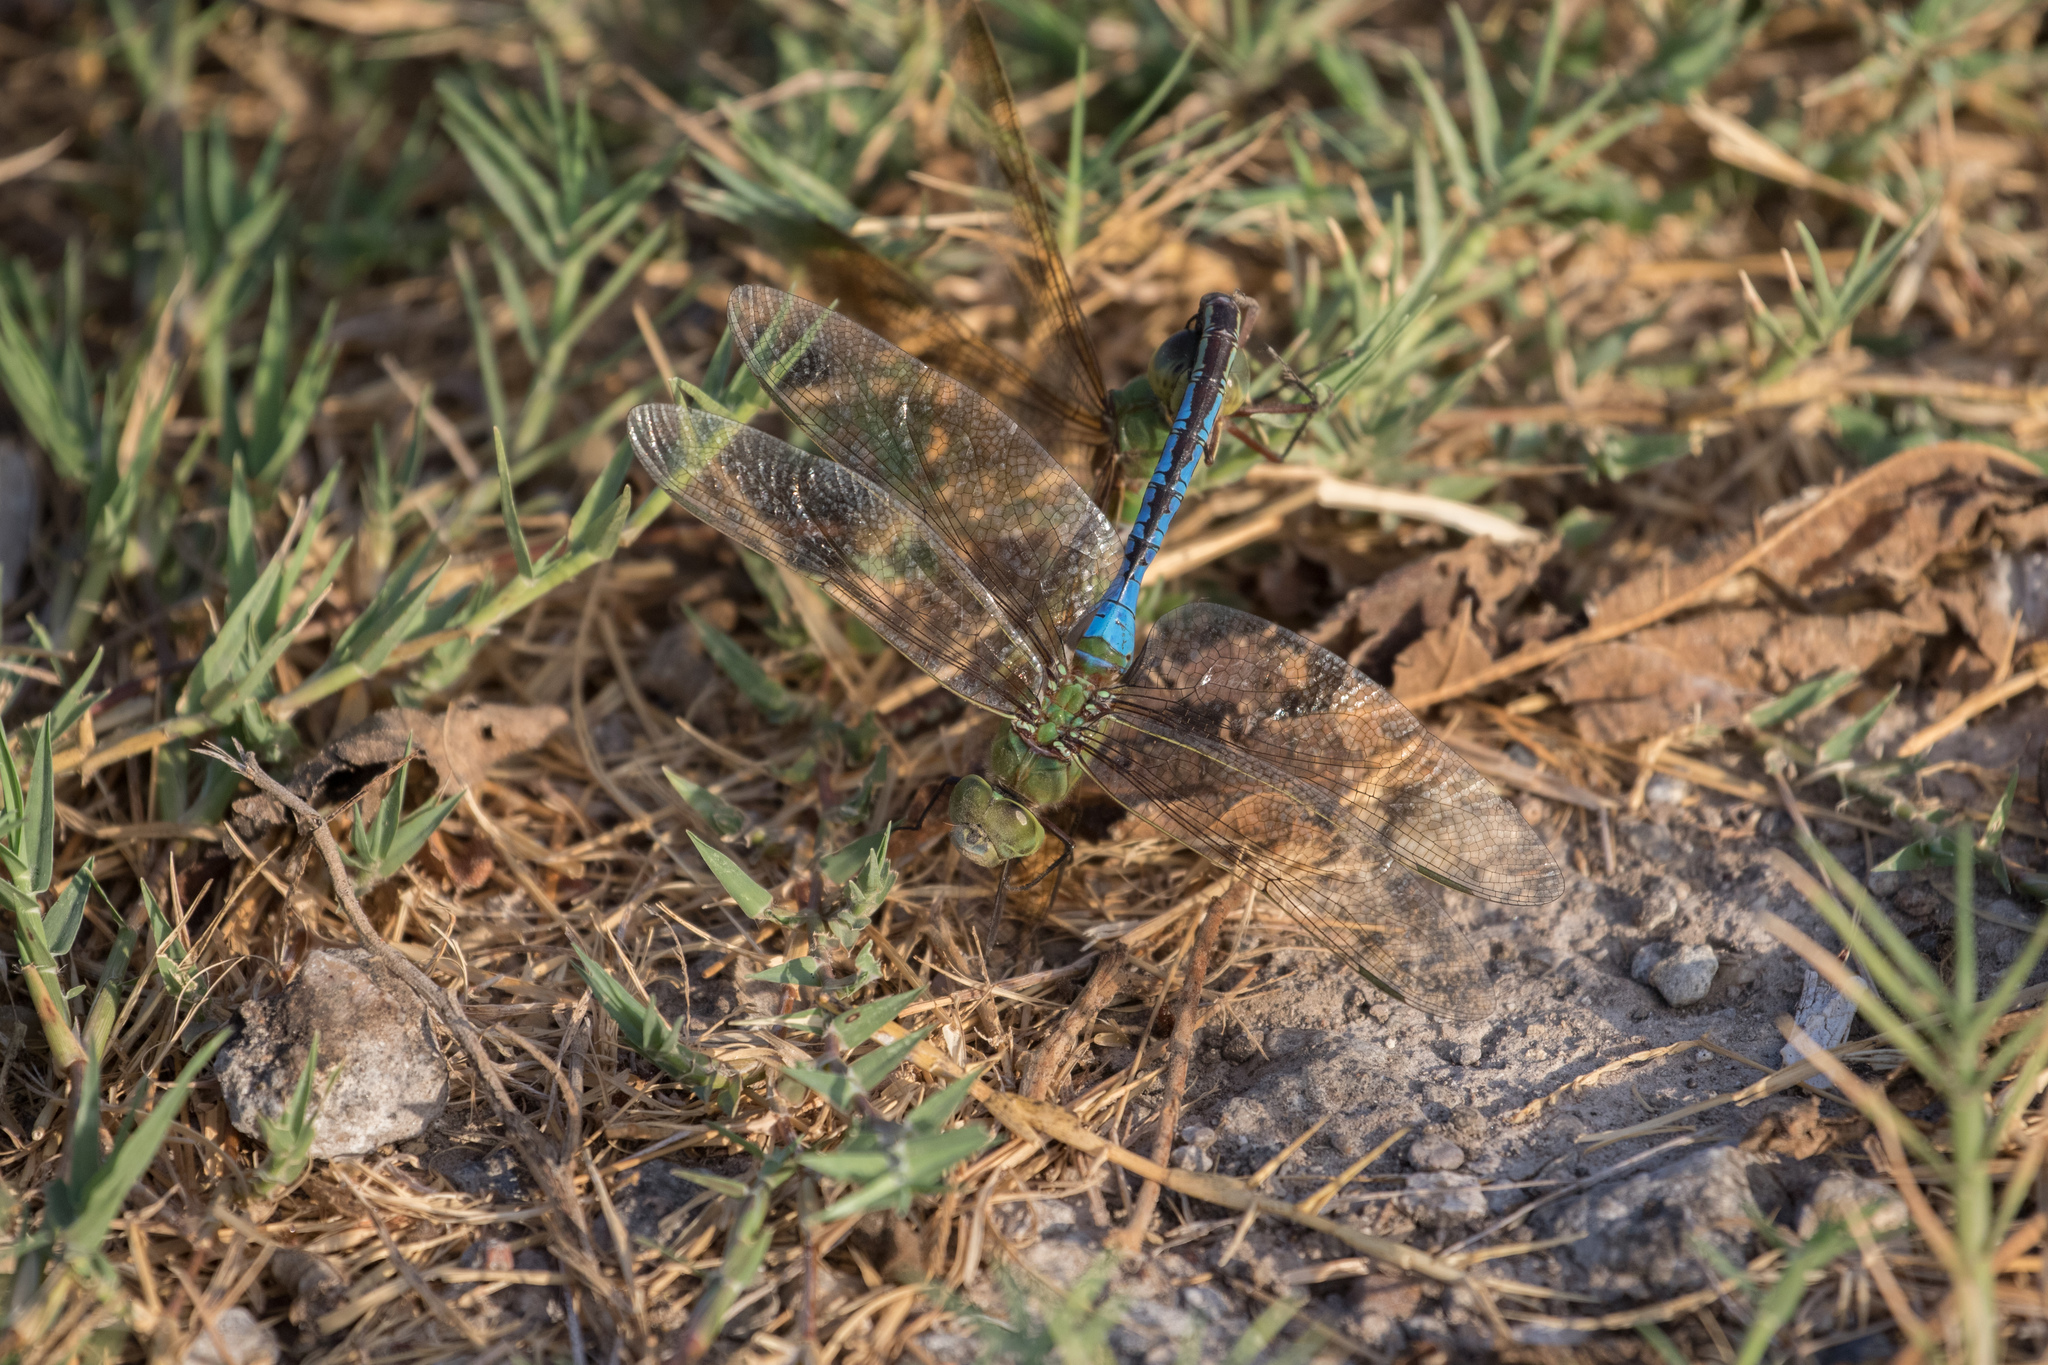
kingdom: Animalia
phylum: Arthropoda
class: Insecta
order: Odonata
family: Aeshnidae
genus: Anax
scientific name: Anax junius
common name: Common green darner
